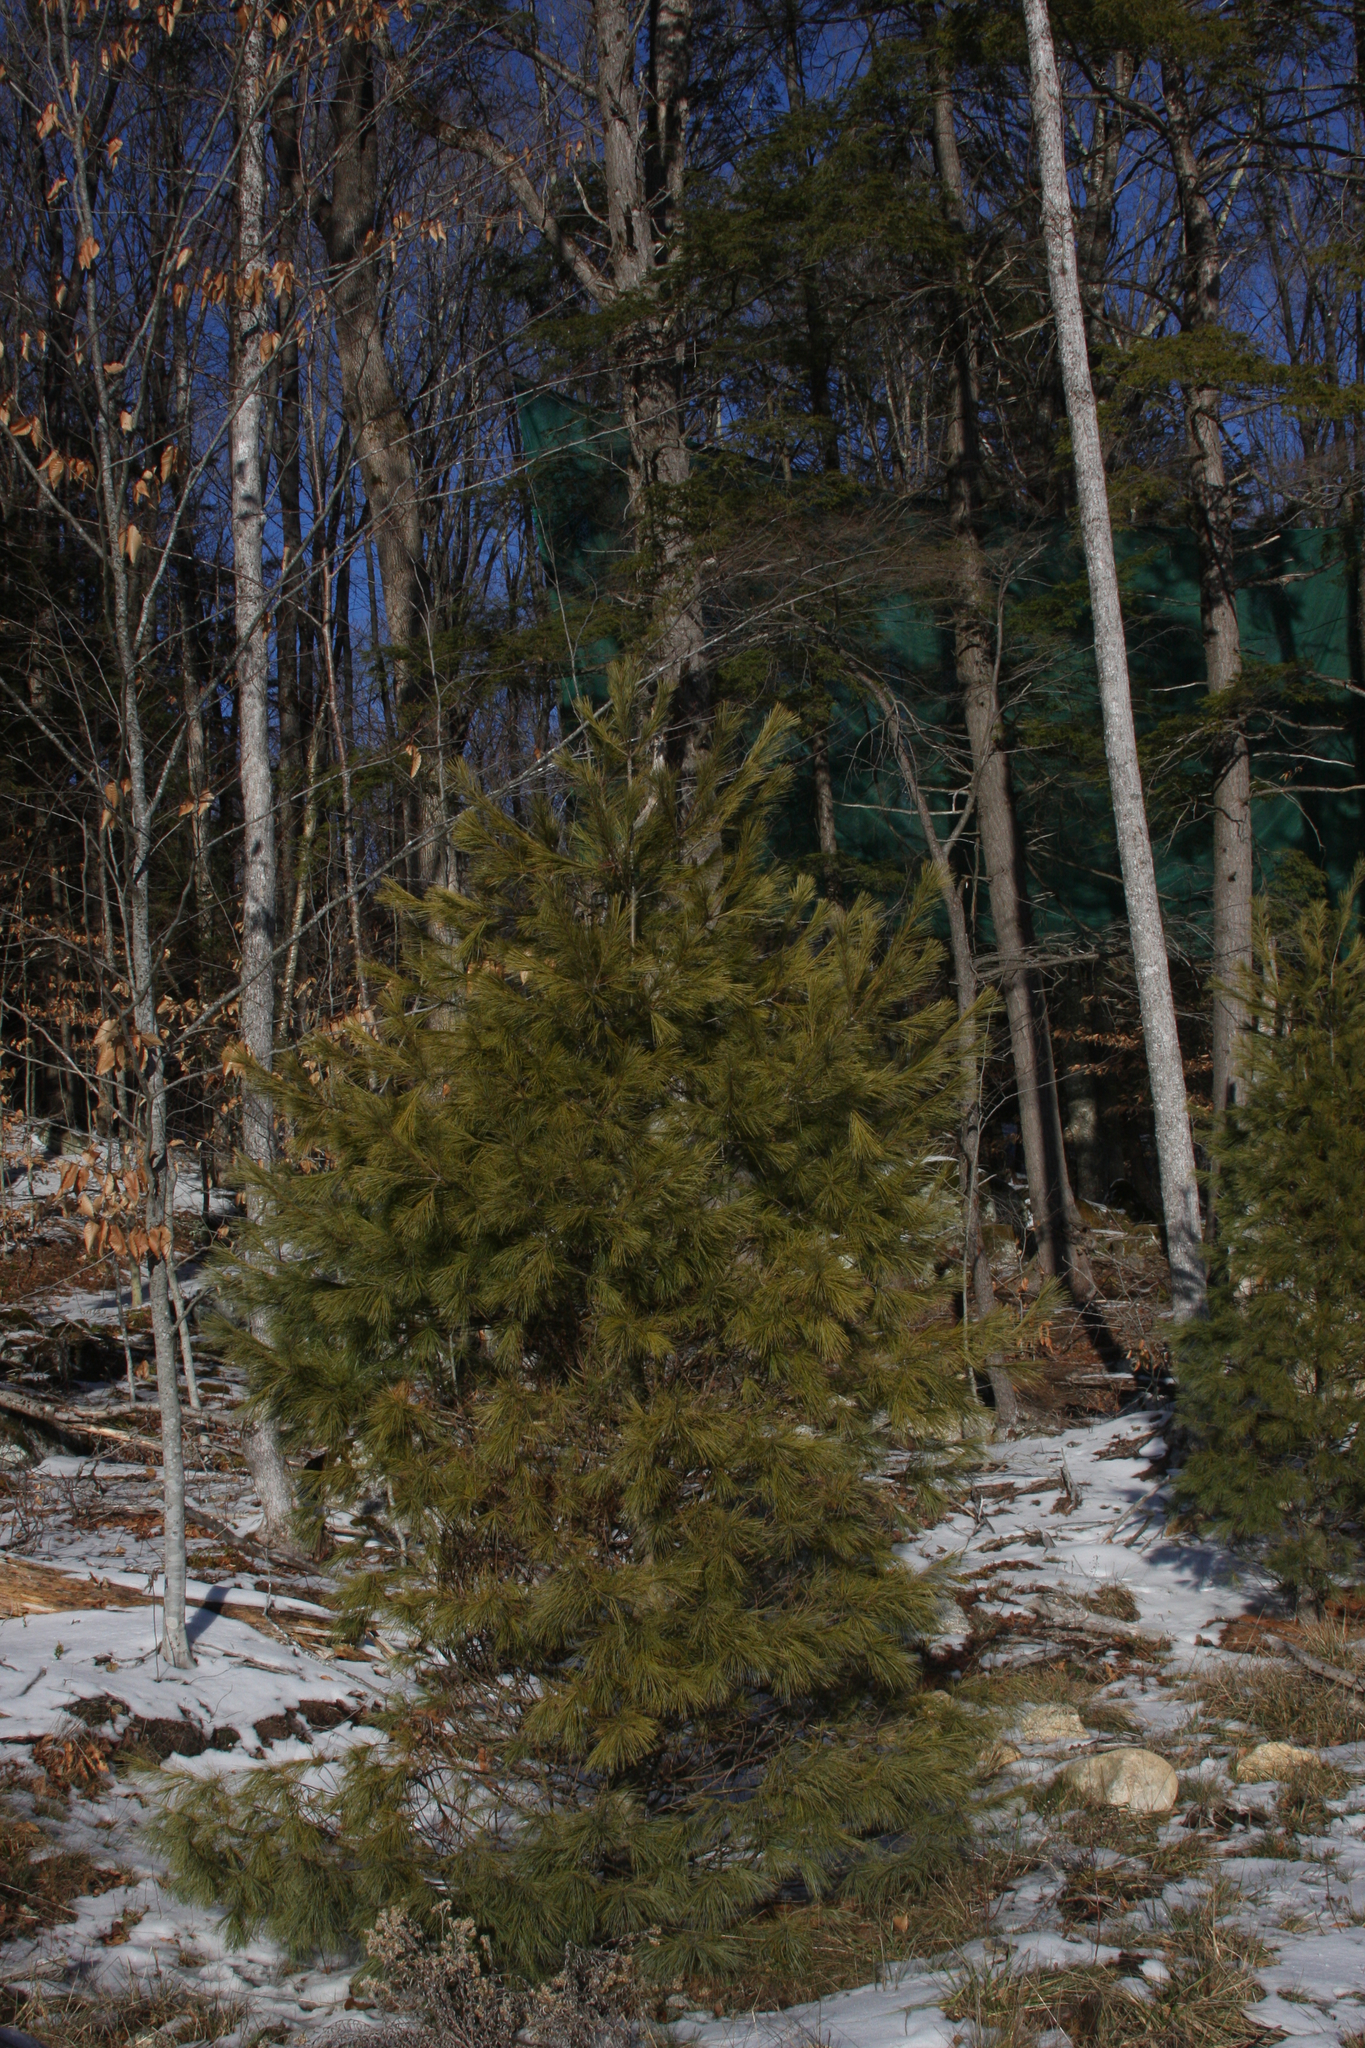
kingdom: Plantae
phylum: Tracheophyta
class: Pinopsida
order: Pinales
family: Pinaceae
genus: Pinus
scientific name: Pinus strobus
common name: Weymouth pine
